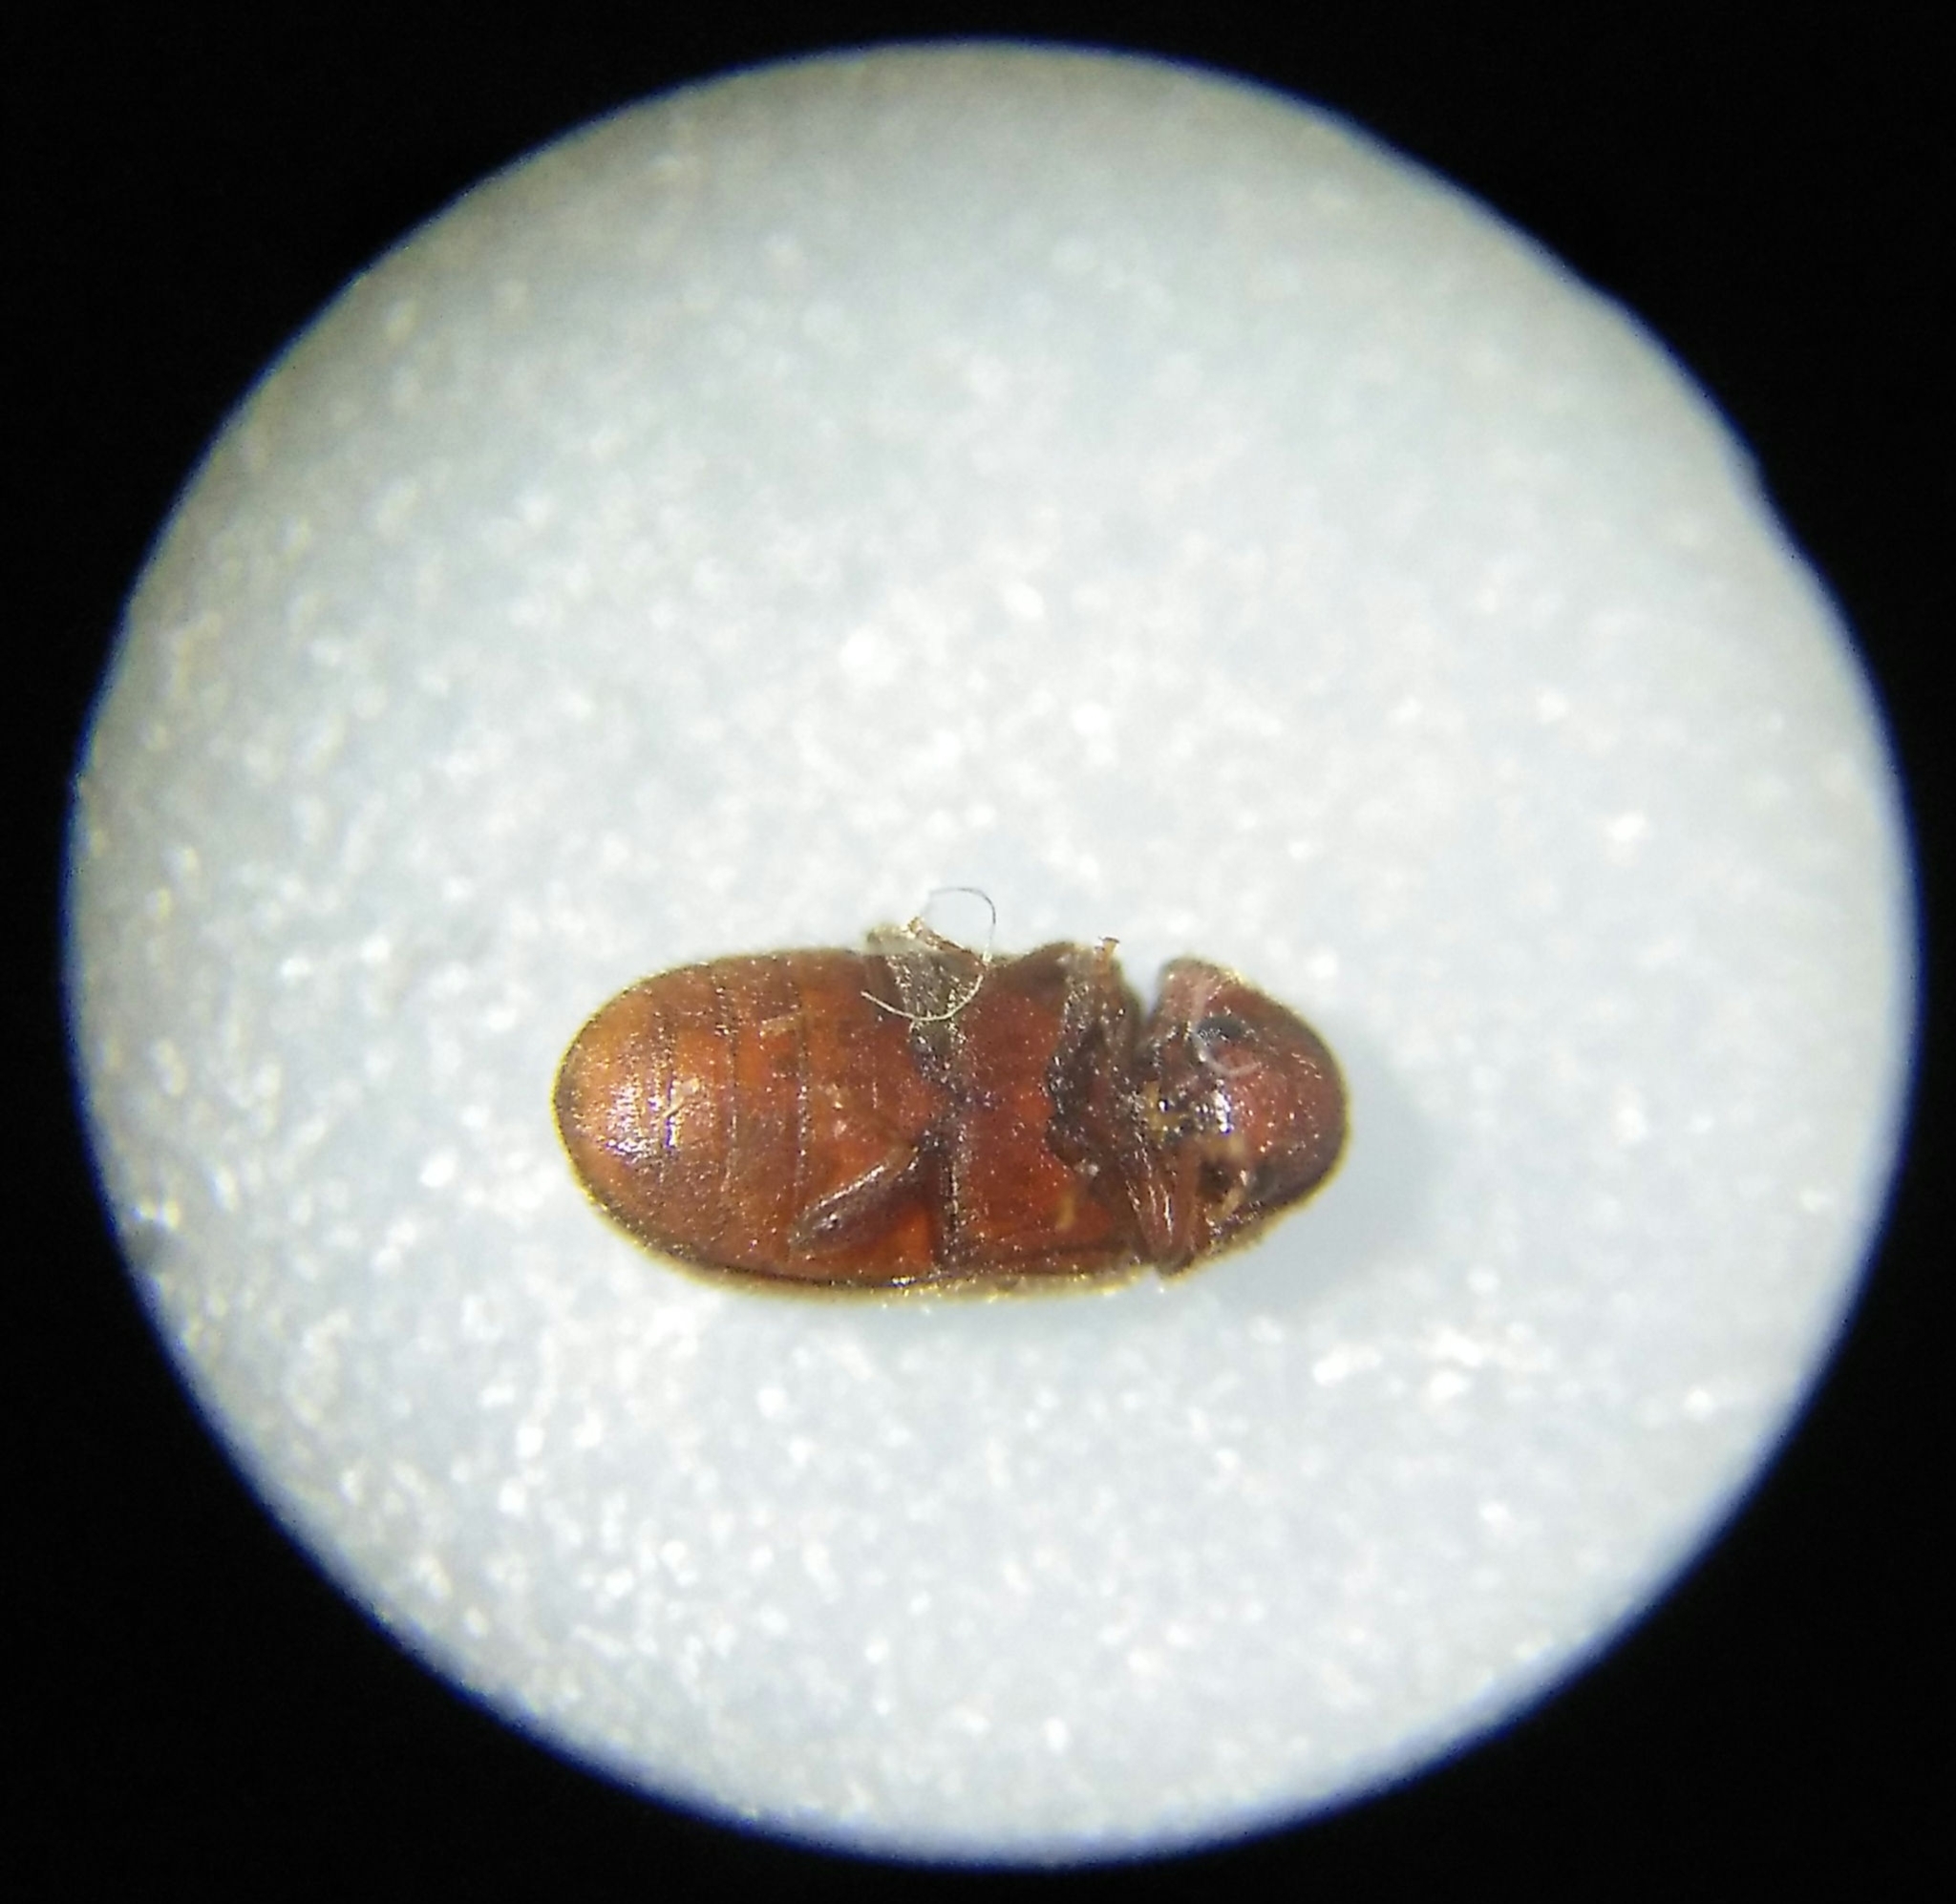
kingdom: Animalia
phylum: Arthropoda
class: Insecta
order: Coleoptera
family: Anobiidae
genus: Stegobium
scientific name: Stegobium paniceum
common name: Drugstore beetle
